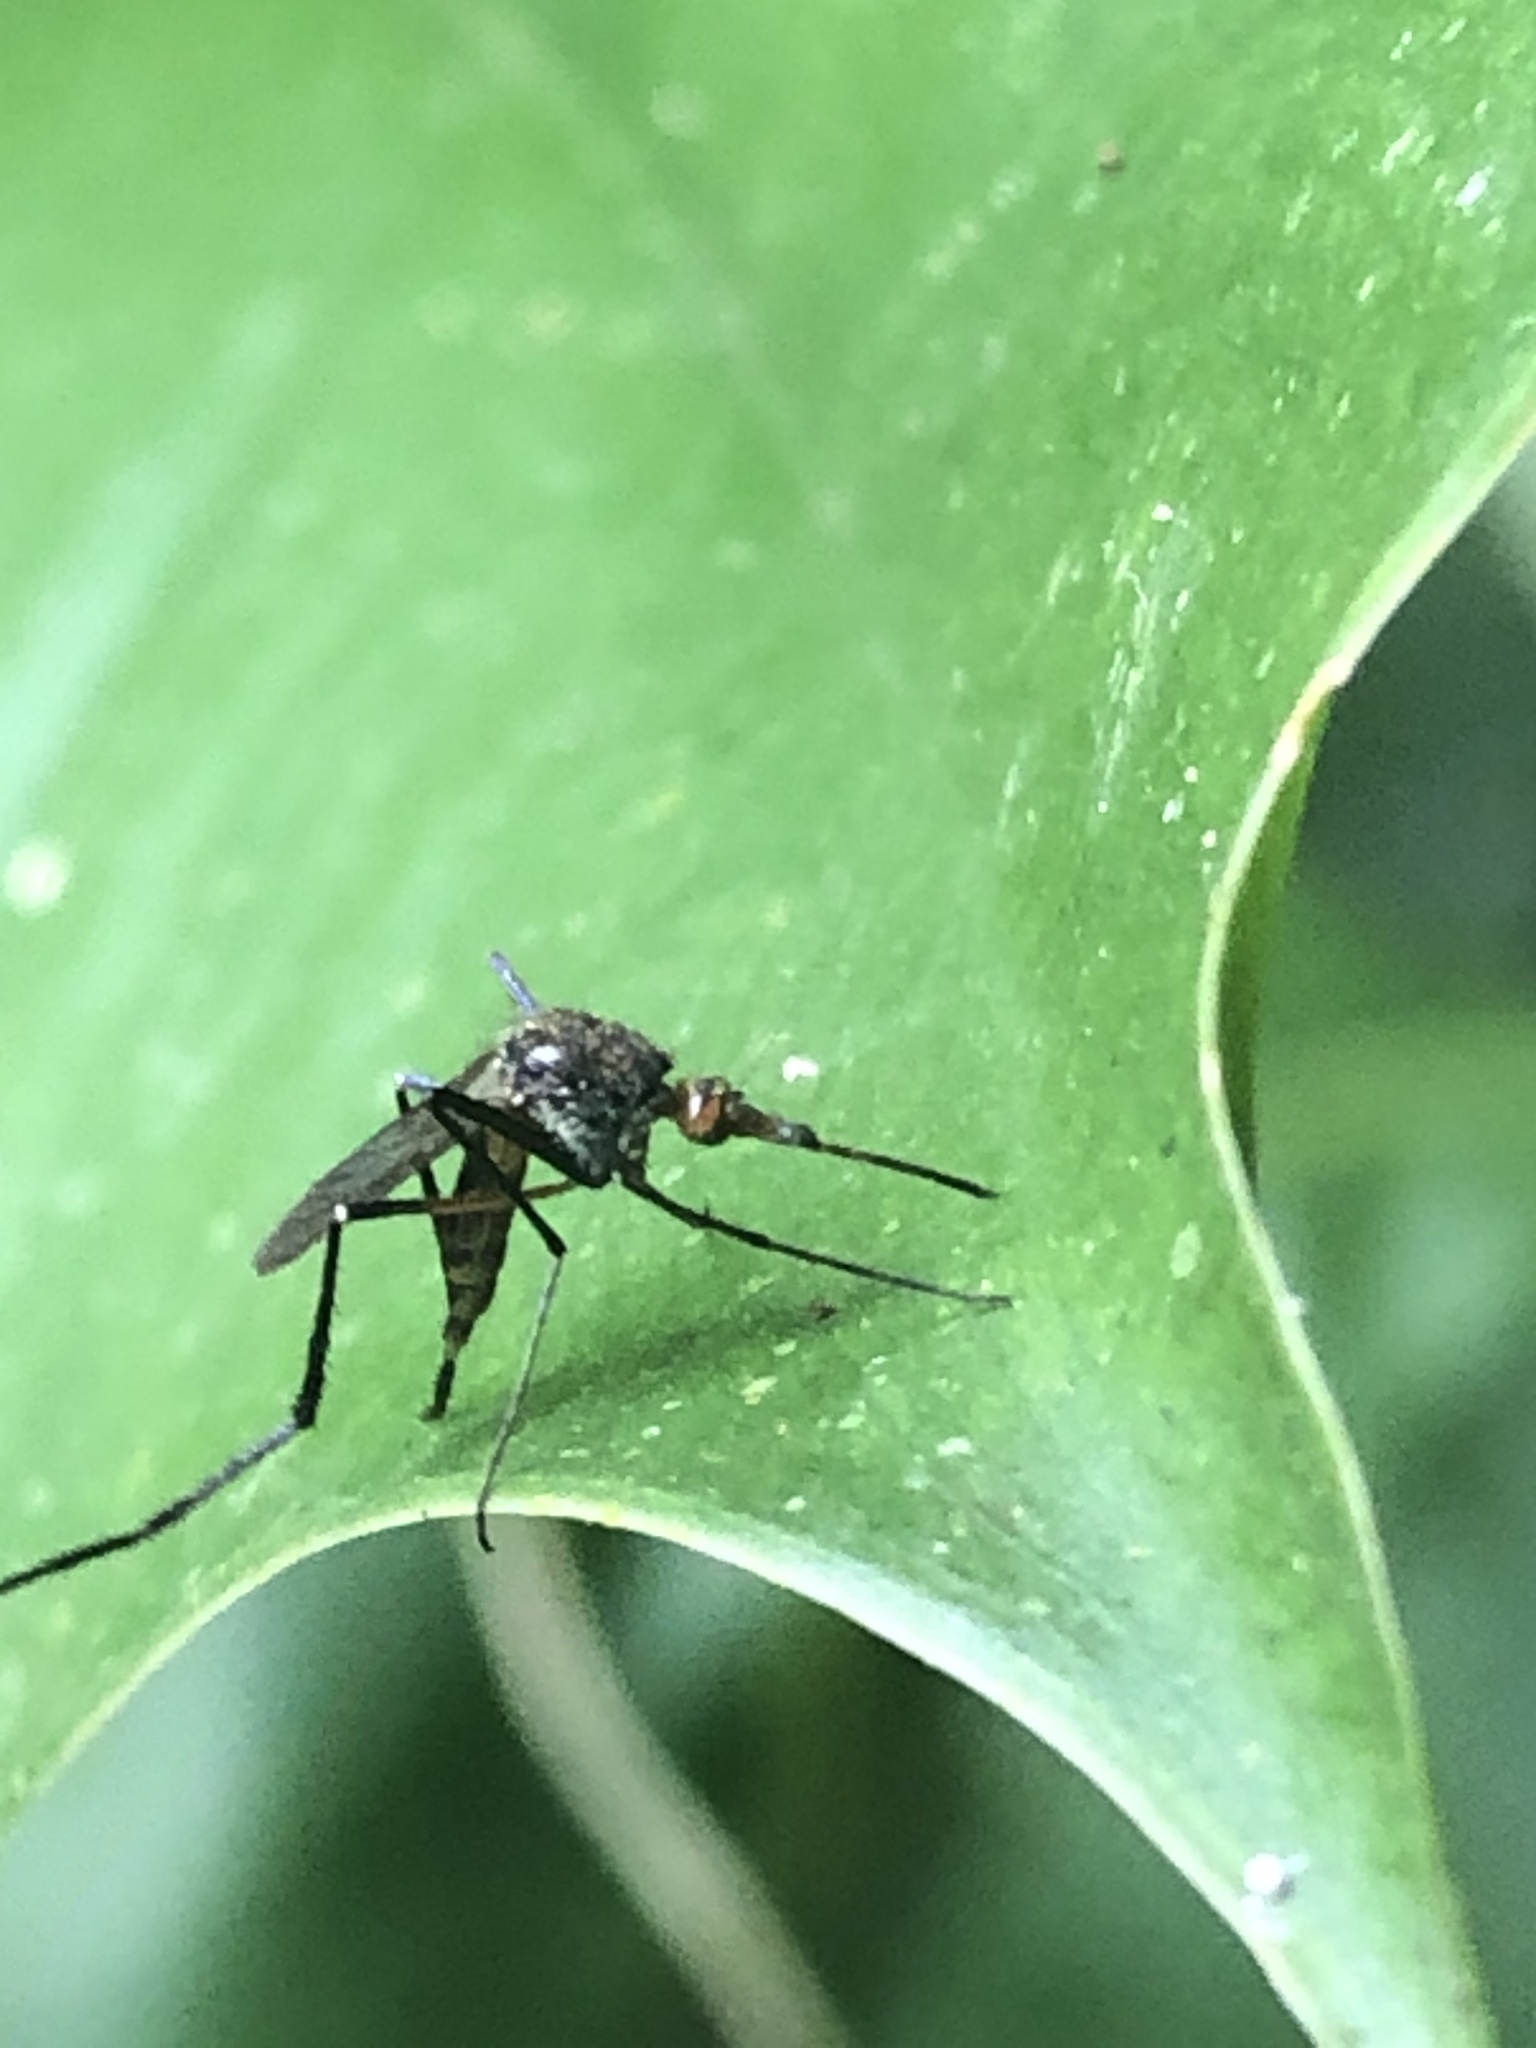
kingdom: Animalia
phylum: Arthropoda
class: Insecta
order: Diptera
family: Culicidae
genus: Psorophora
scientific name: Psorophora ferox
